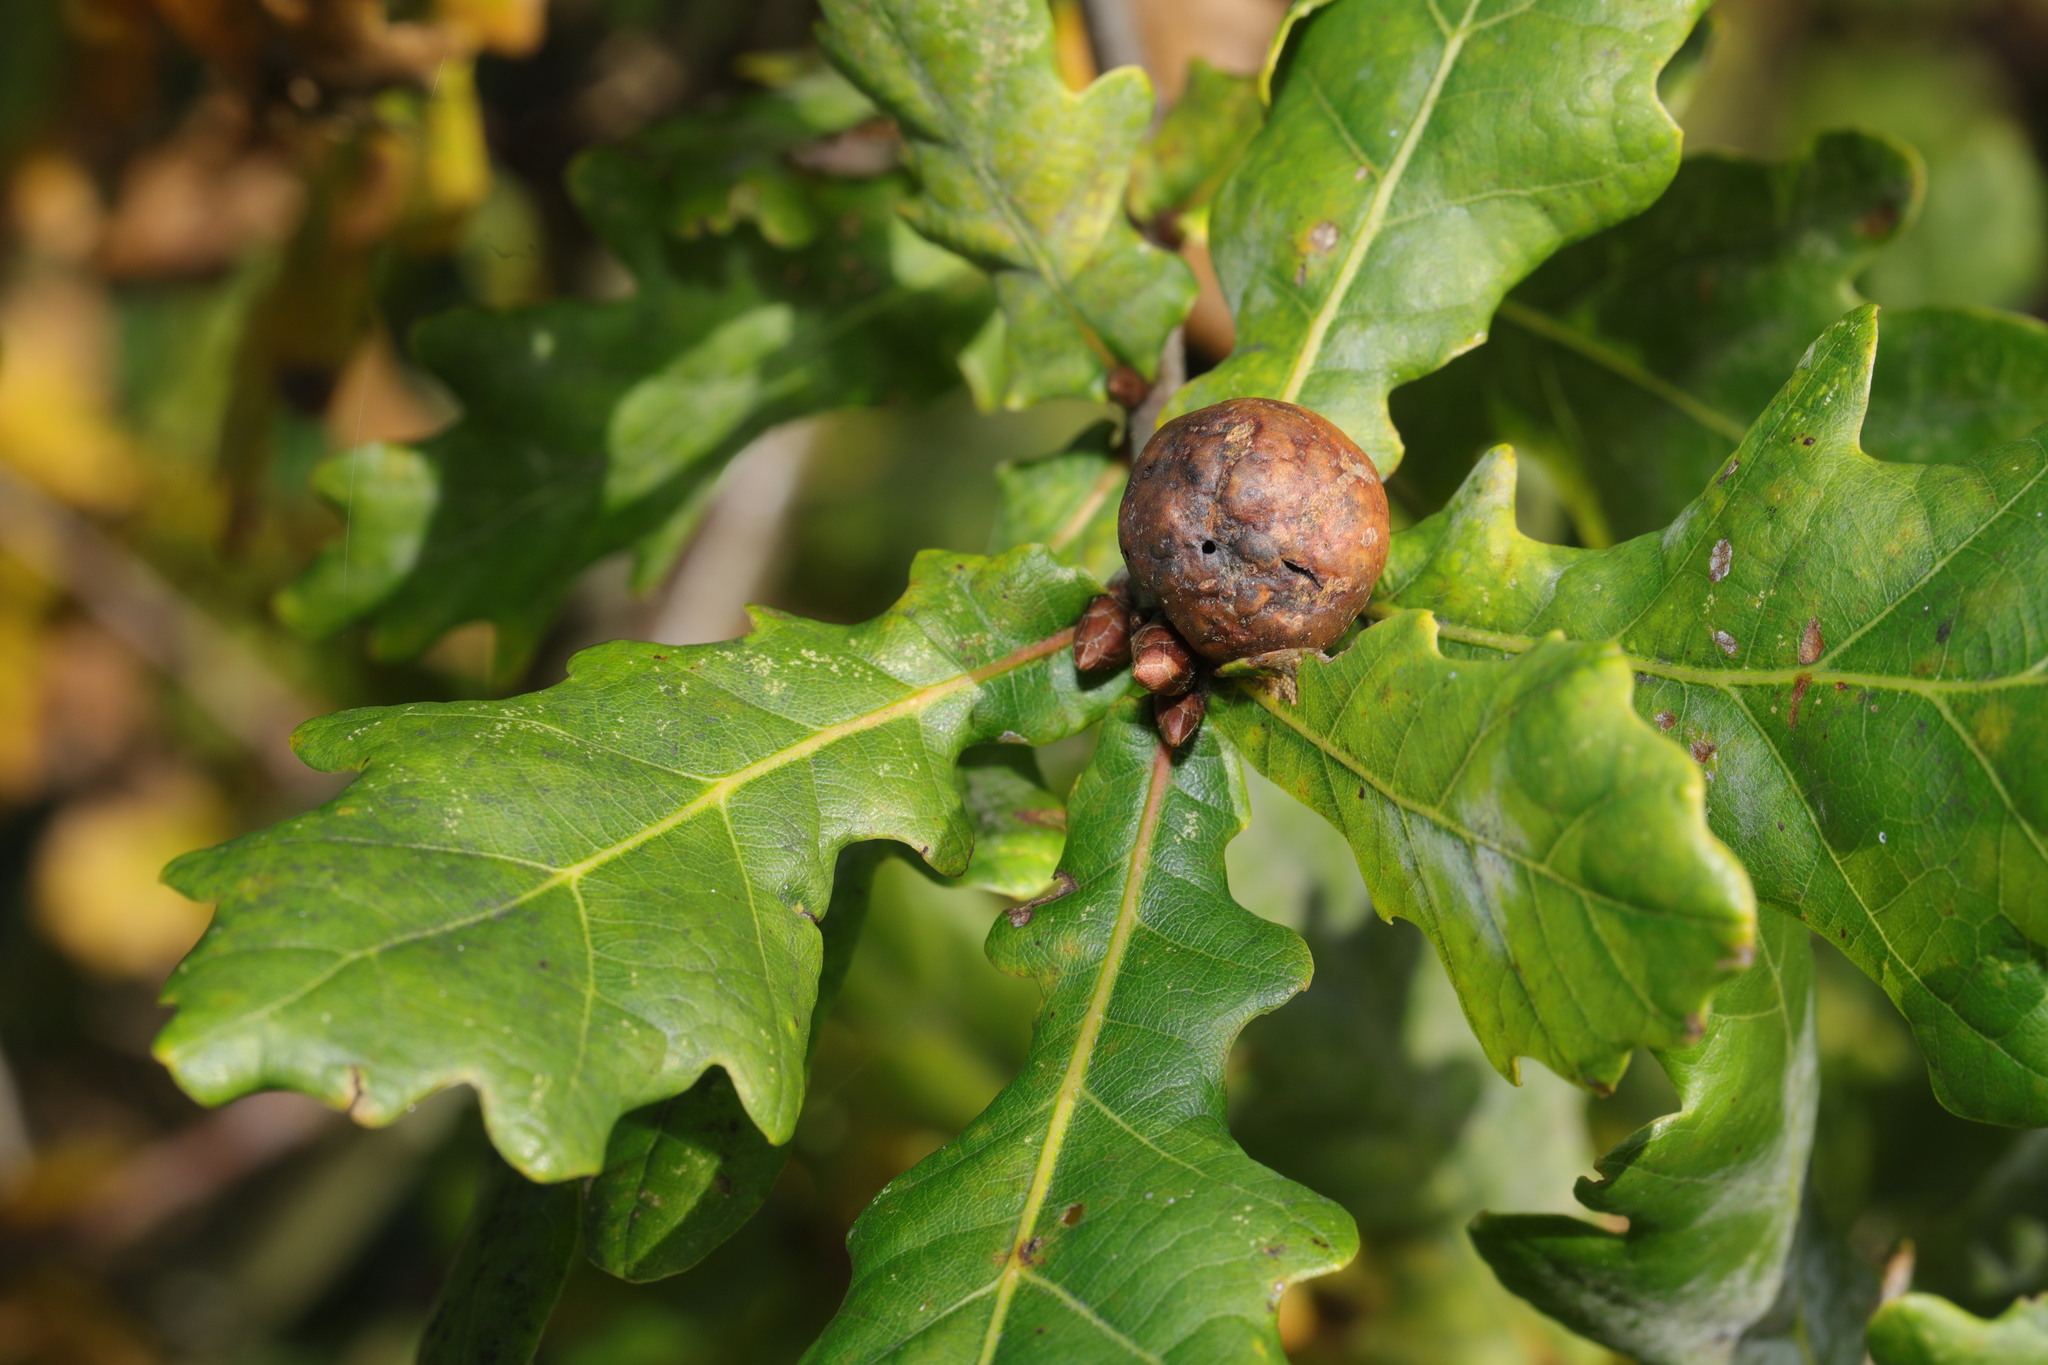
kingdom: Animalia
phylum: Arthropoda
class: Insecta
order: Hymenoptera
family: Cynipidae
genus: Andricus
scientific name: Andricus kollari
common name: Marble gall
